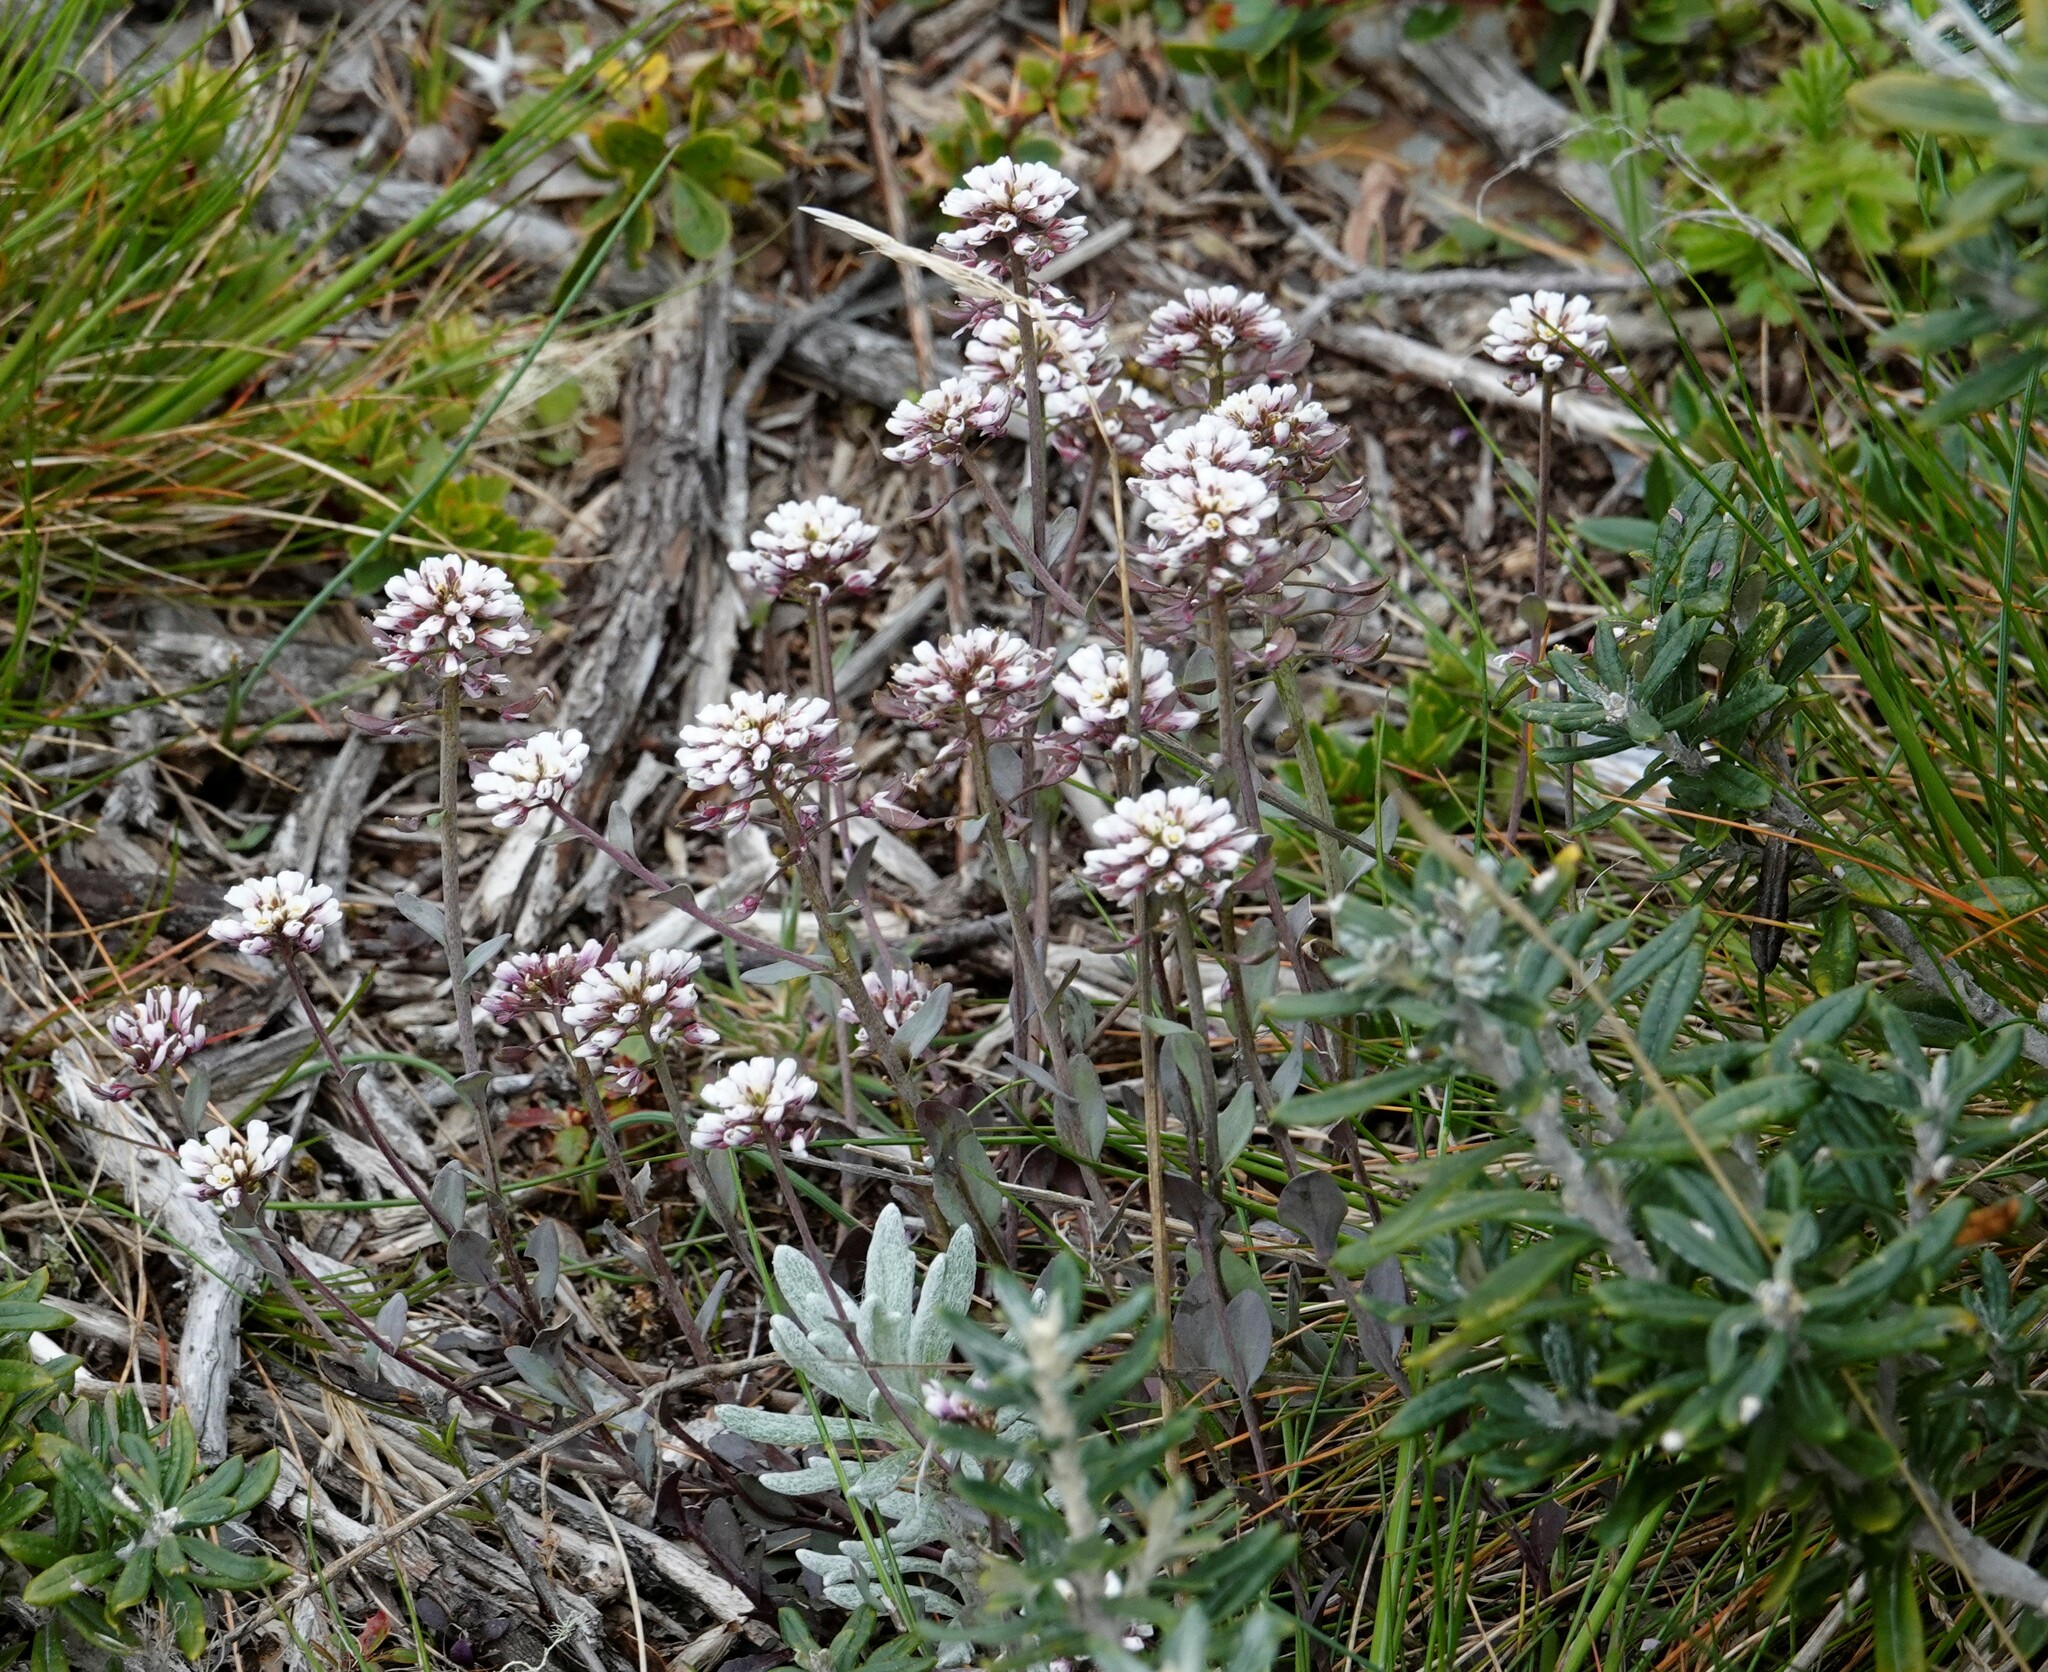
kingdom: Plantae
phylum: Tracheophyta
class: Magnoliopsida
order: Brassicales
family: Brassicaceae
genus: Noccaea
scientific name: Noccaea magellanica
